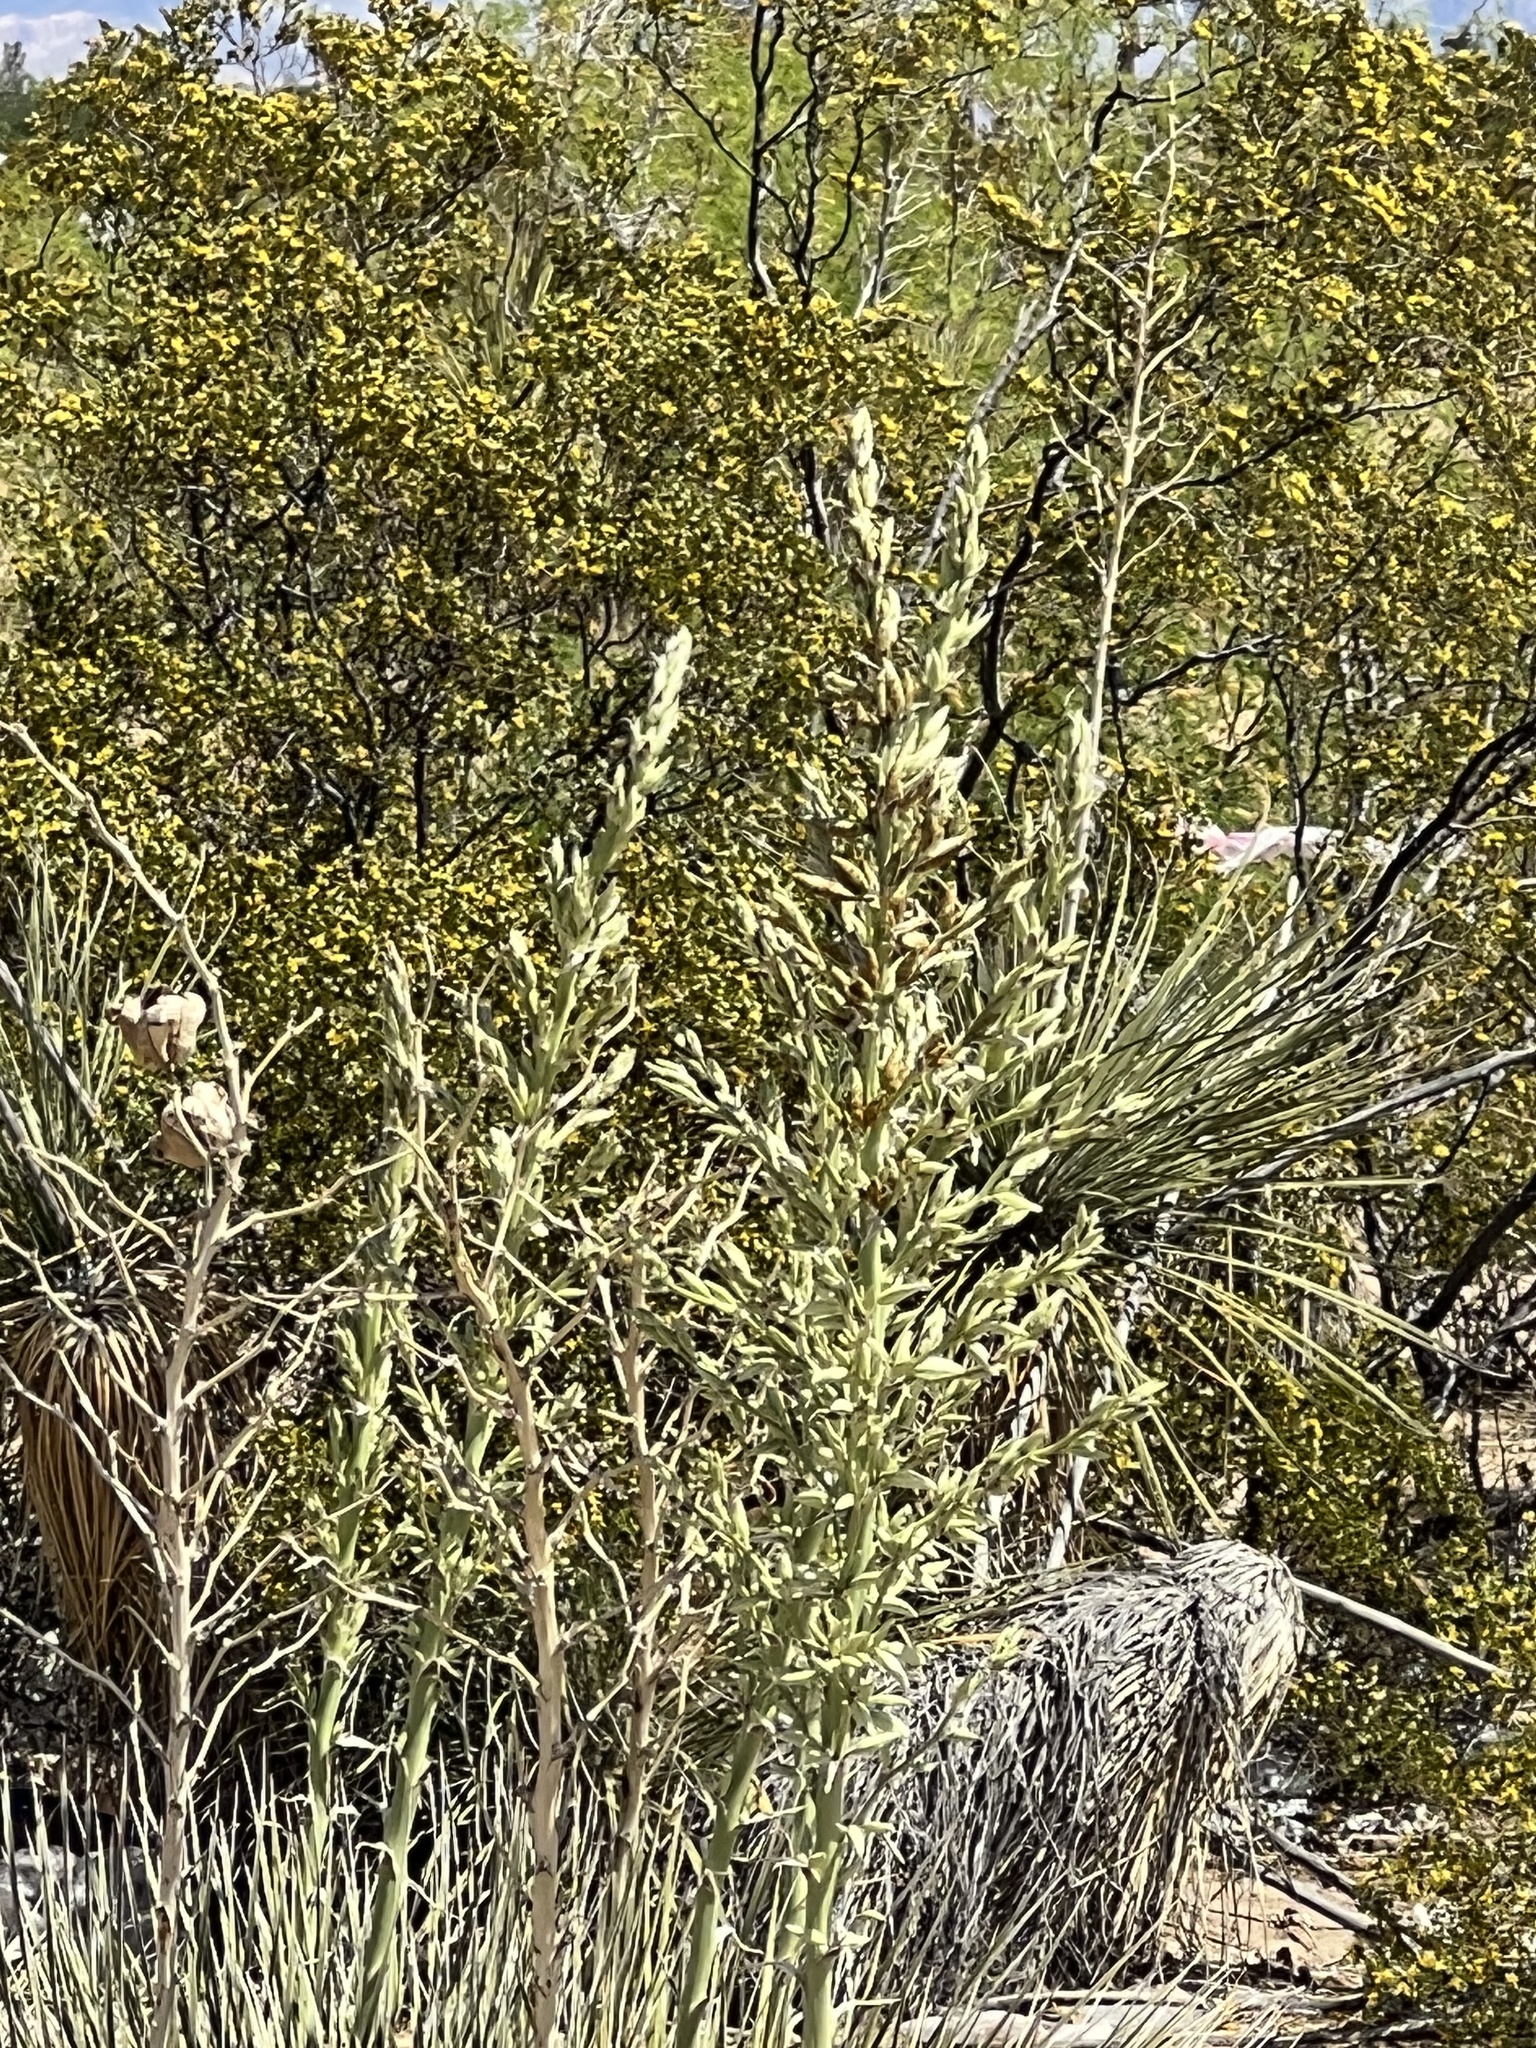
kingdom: Plantae
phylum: Tracheophyta
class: Liliopsida
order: Asparagales
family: Asparagaceae
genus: Yucca
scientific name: Yucca elata
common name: Palmella
